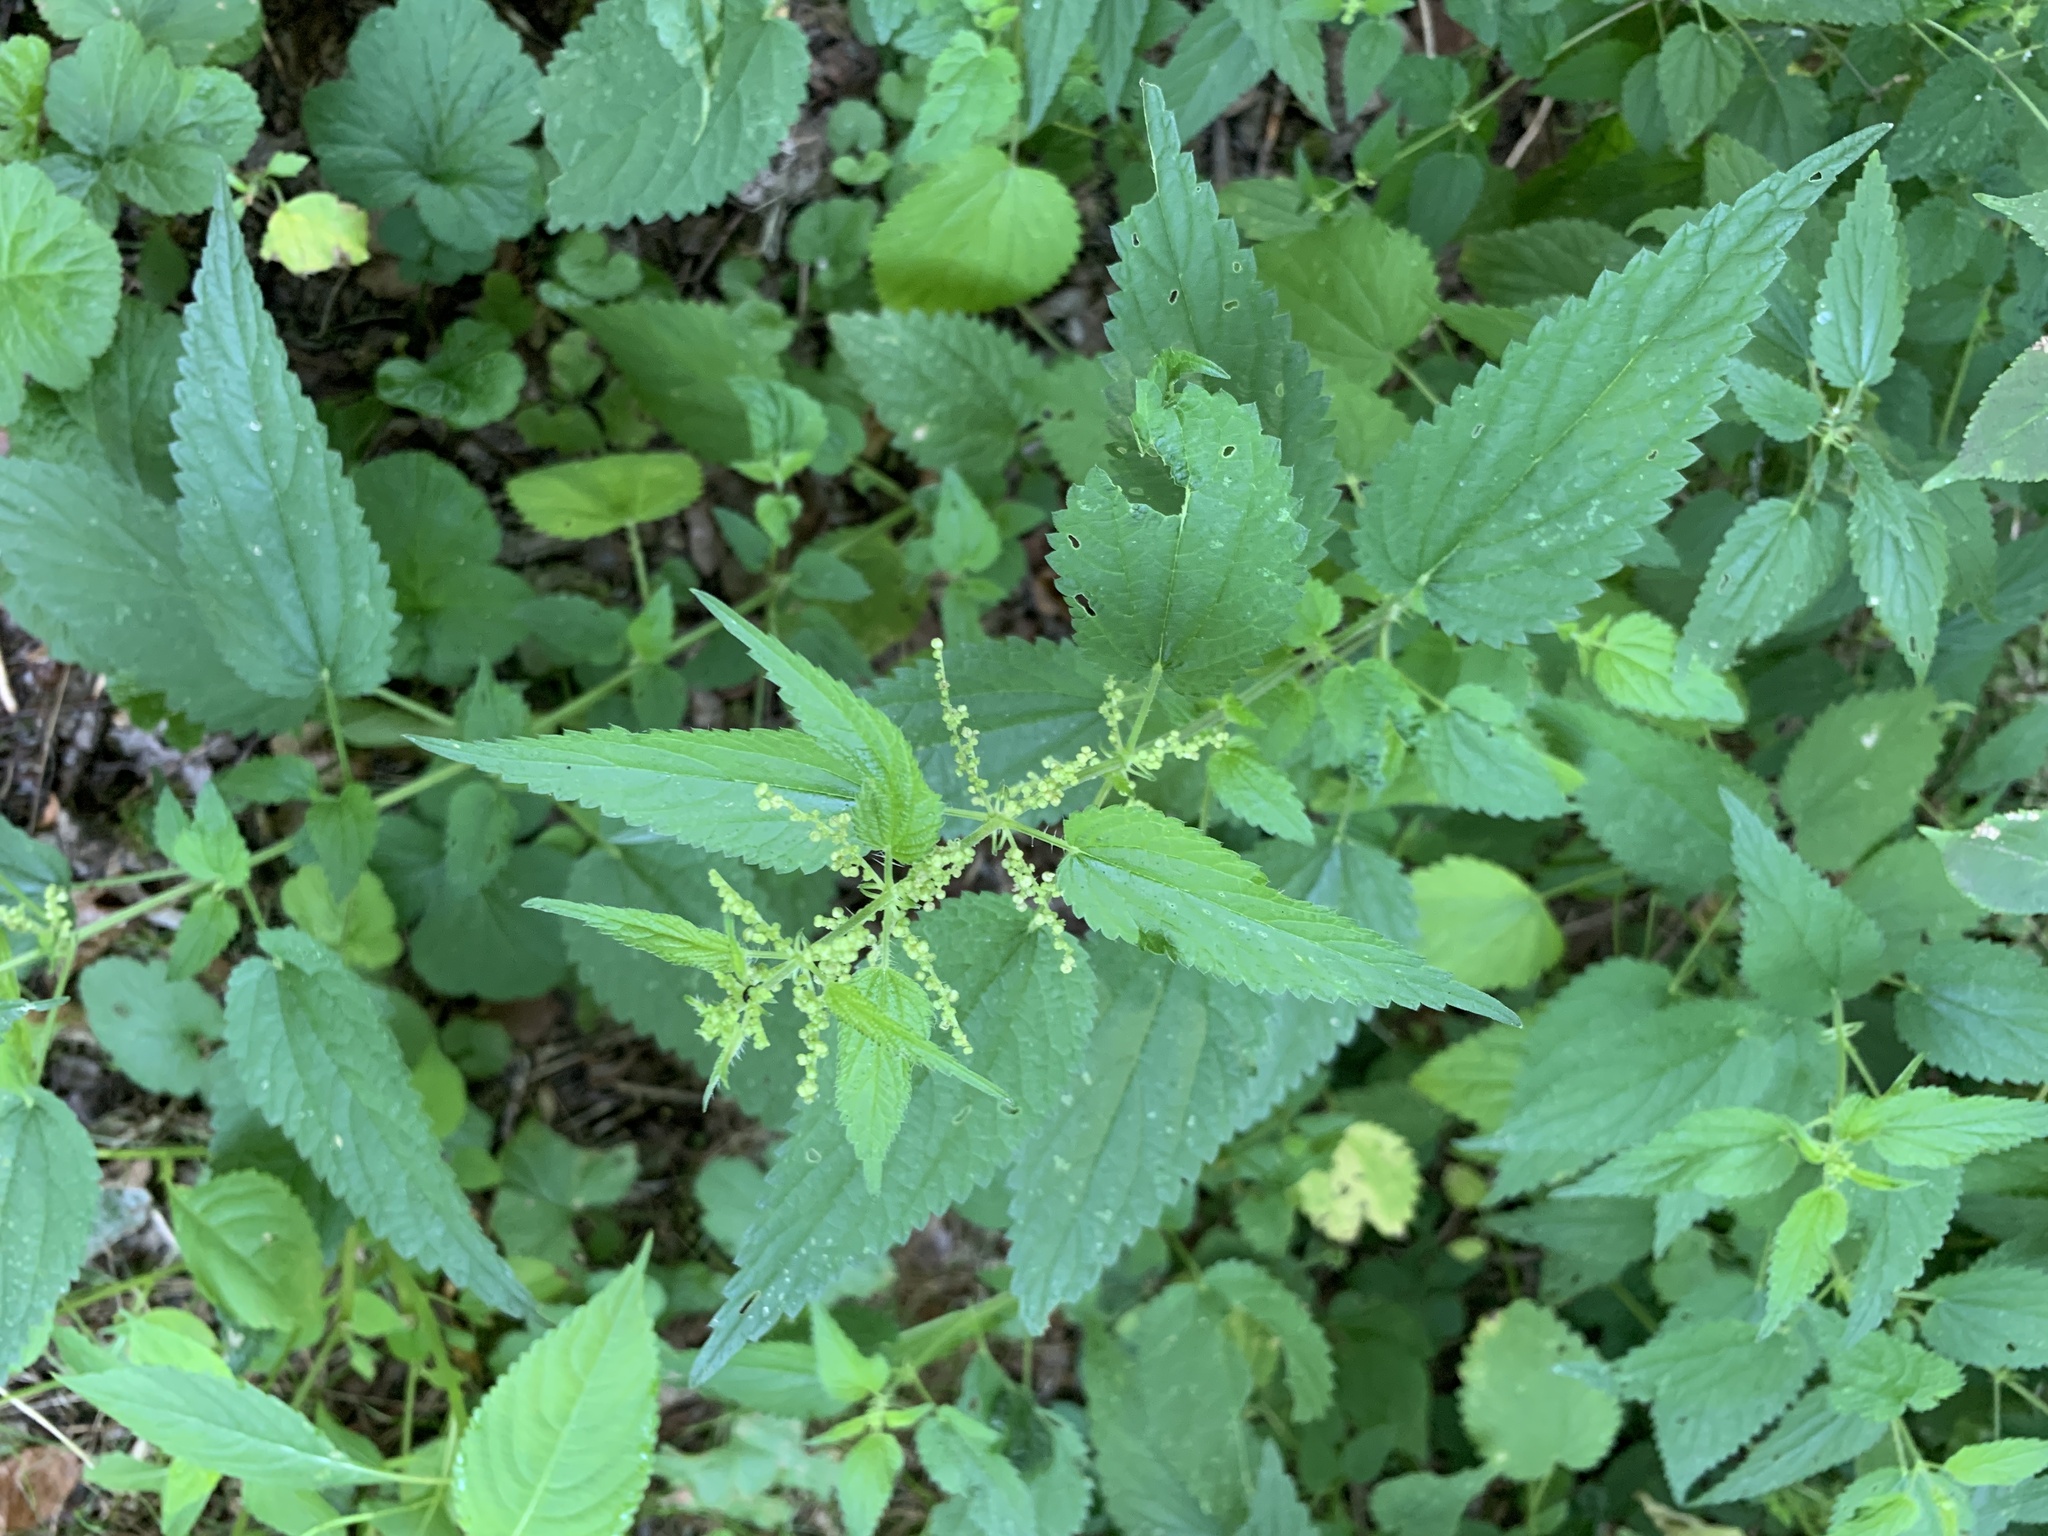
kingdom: Plantae
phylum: Tracheophyta
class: Magnoliopsida
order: Rosales
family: Urticaceae
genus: Urtica
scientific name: Urtica dioica
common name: Common nettle
